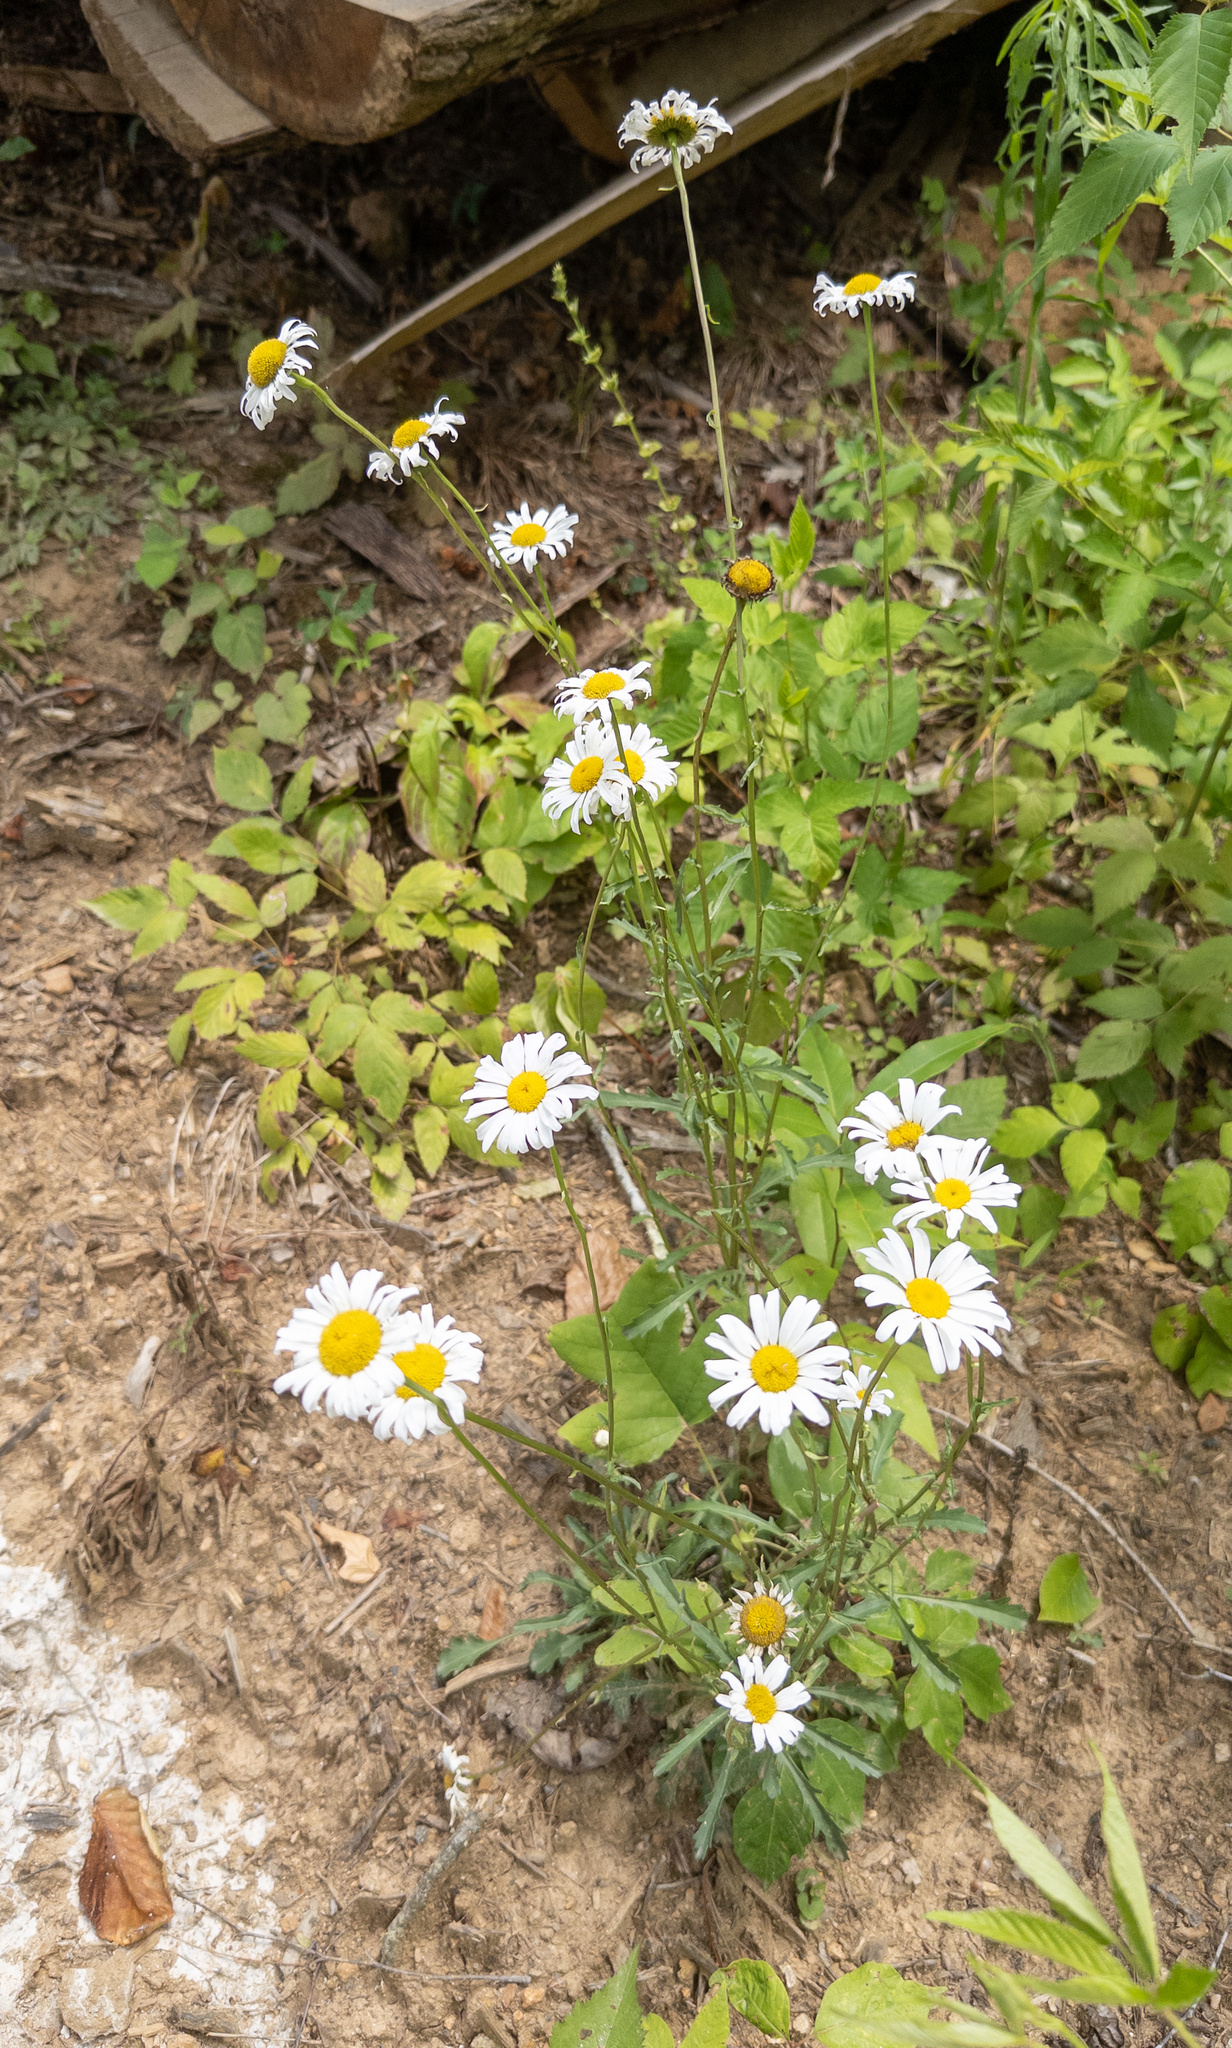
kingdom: Plantae
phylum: Tracheophyta
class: Magnoliopsida
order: Asterales
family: Asteraceae
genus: Leucanthemum
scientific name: Leucanthemum vulgare
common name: Oxeye daisy
